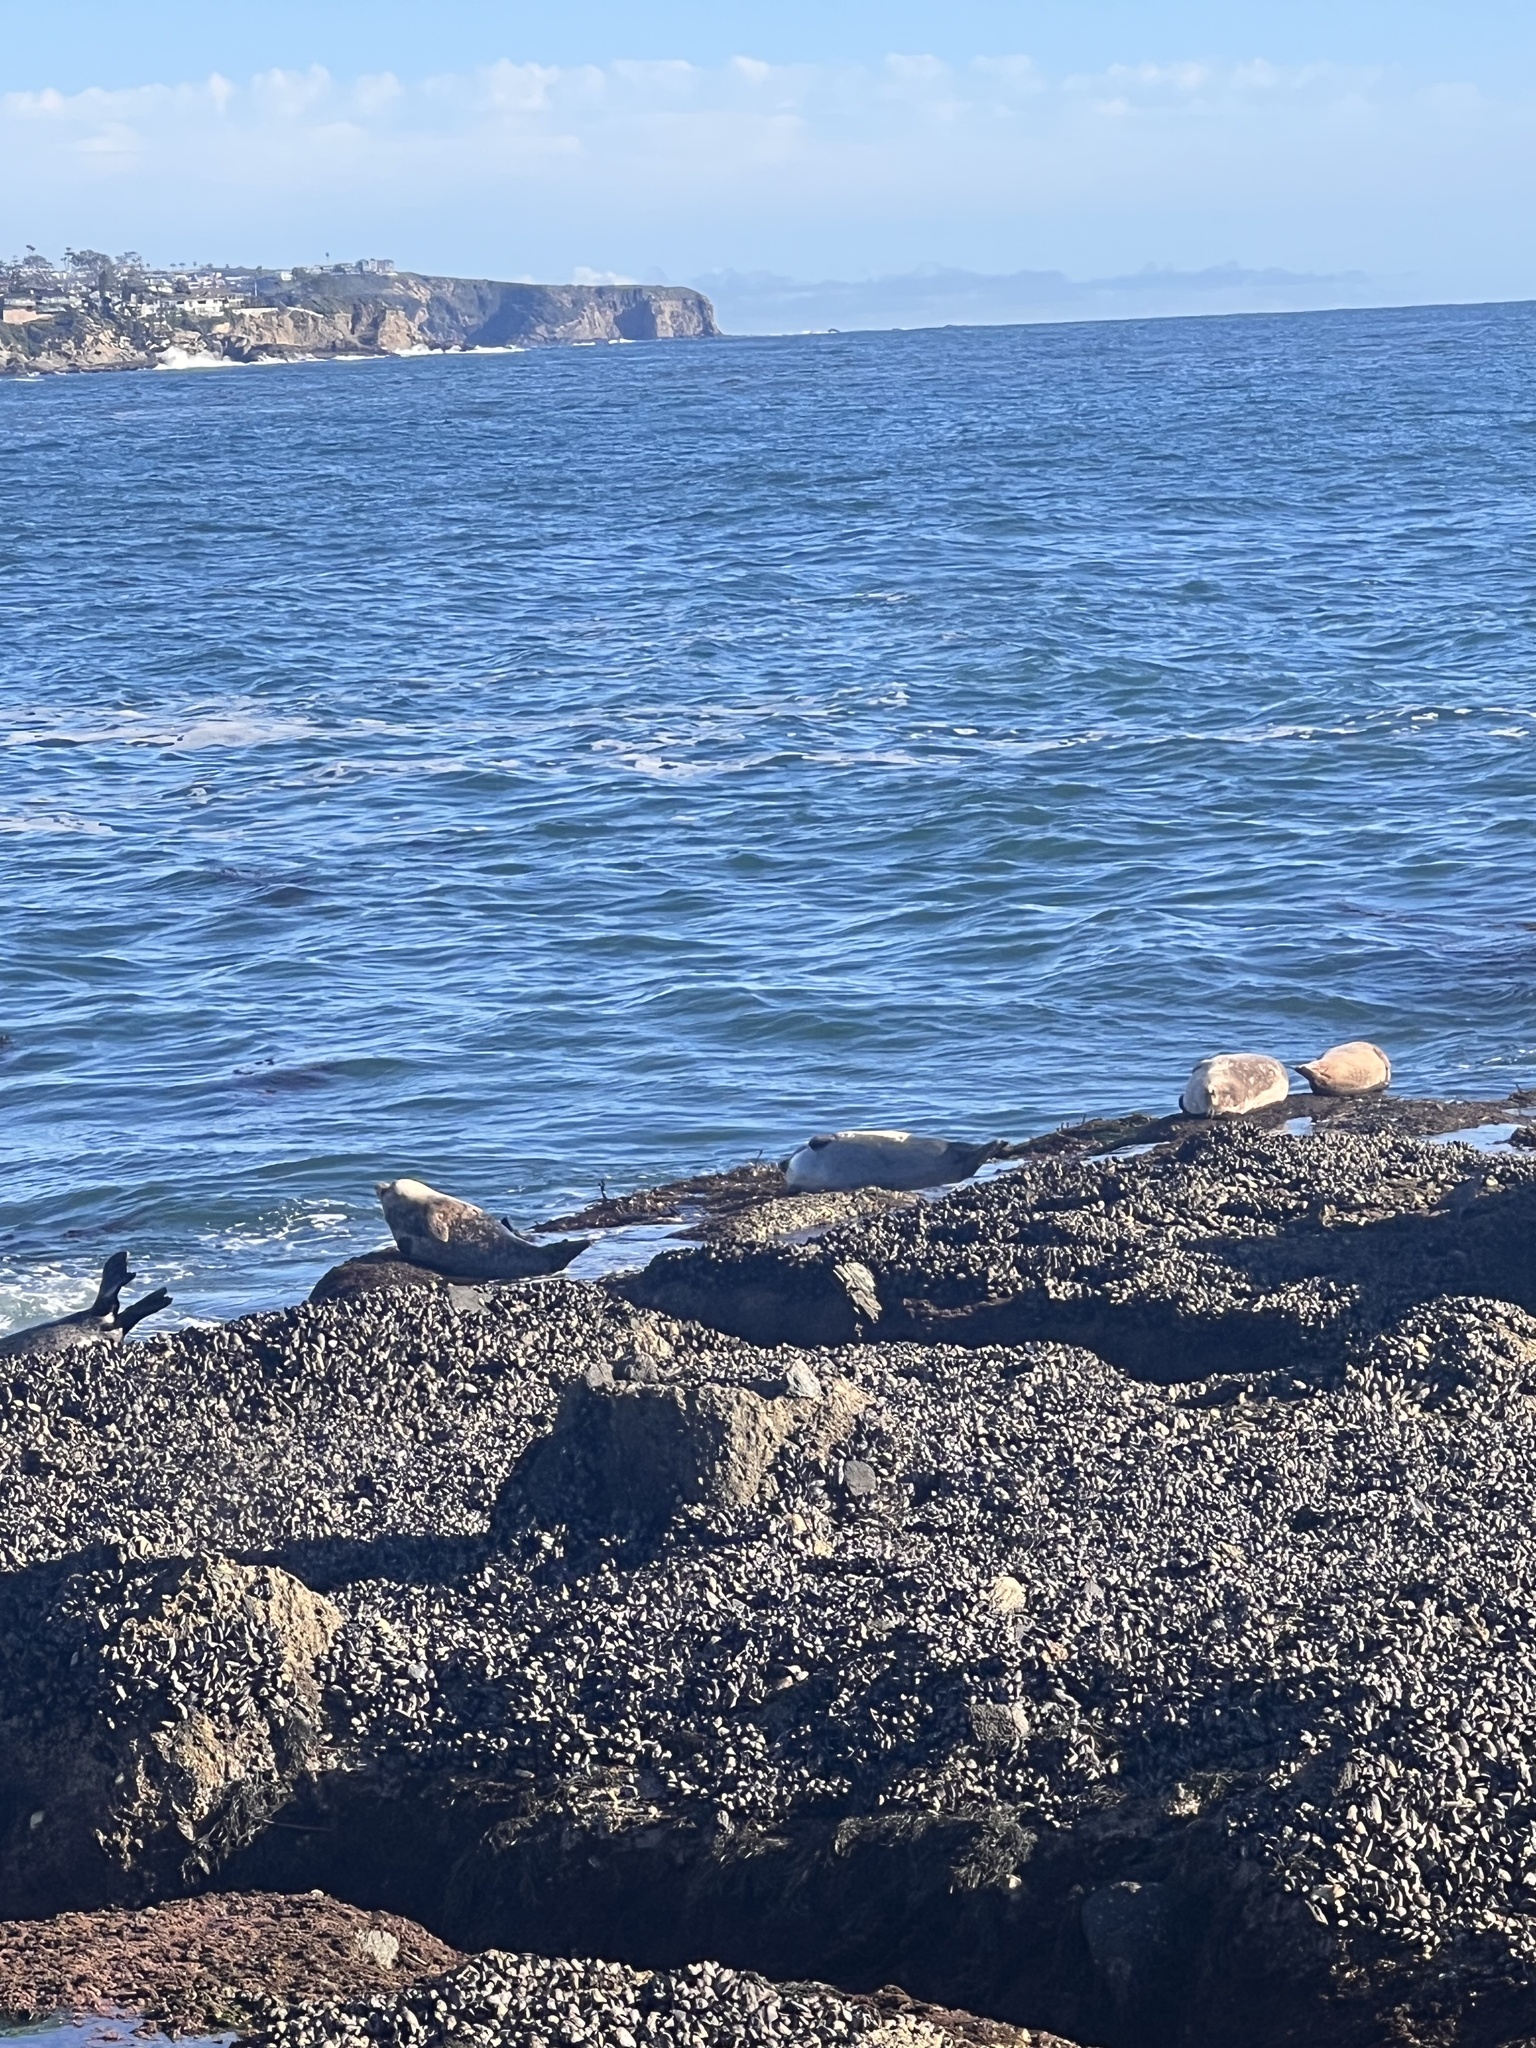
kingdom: Animalia
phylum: Chordata
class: Mammalia
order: Carnivora
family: Phocidae
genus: Phoca
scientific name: Phoca vitulina
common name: Harbor seal
